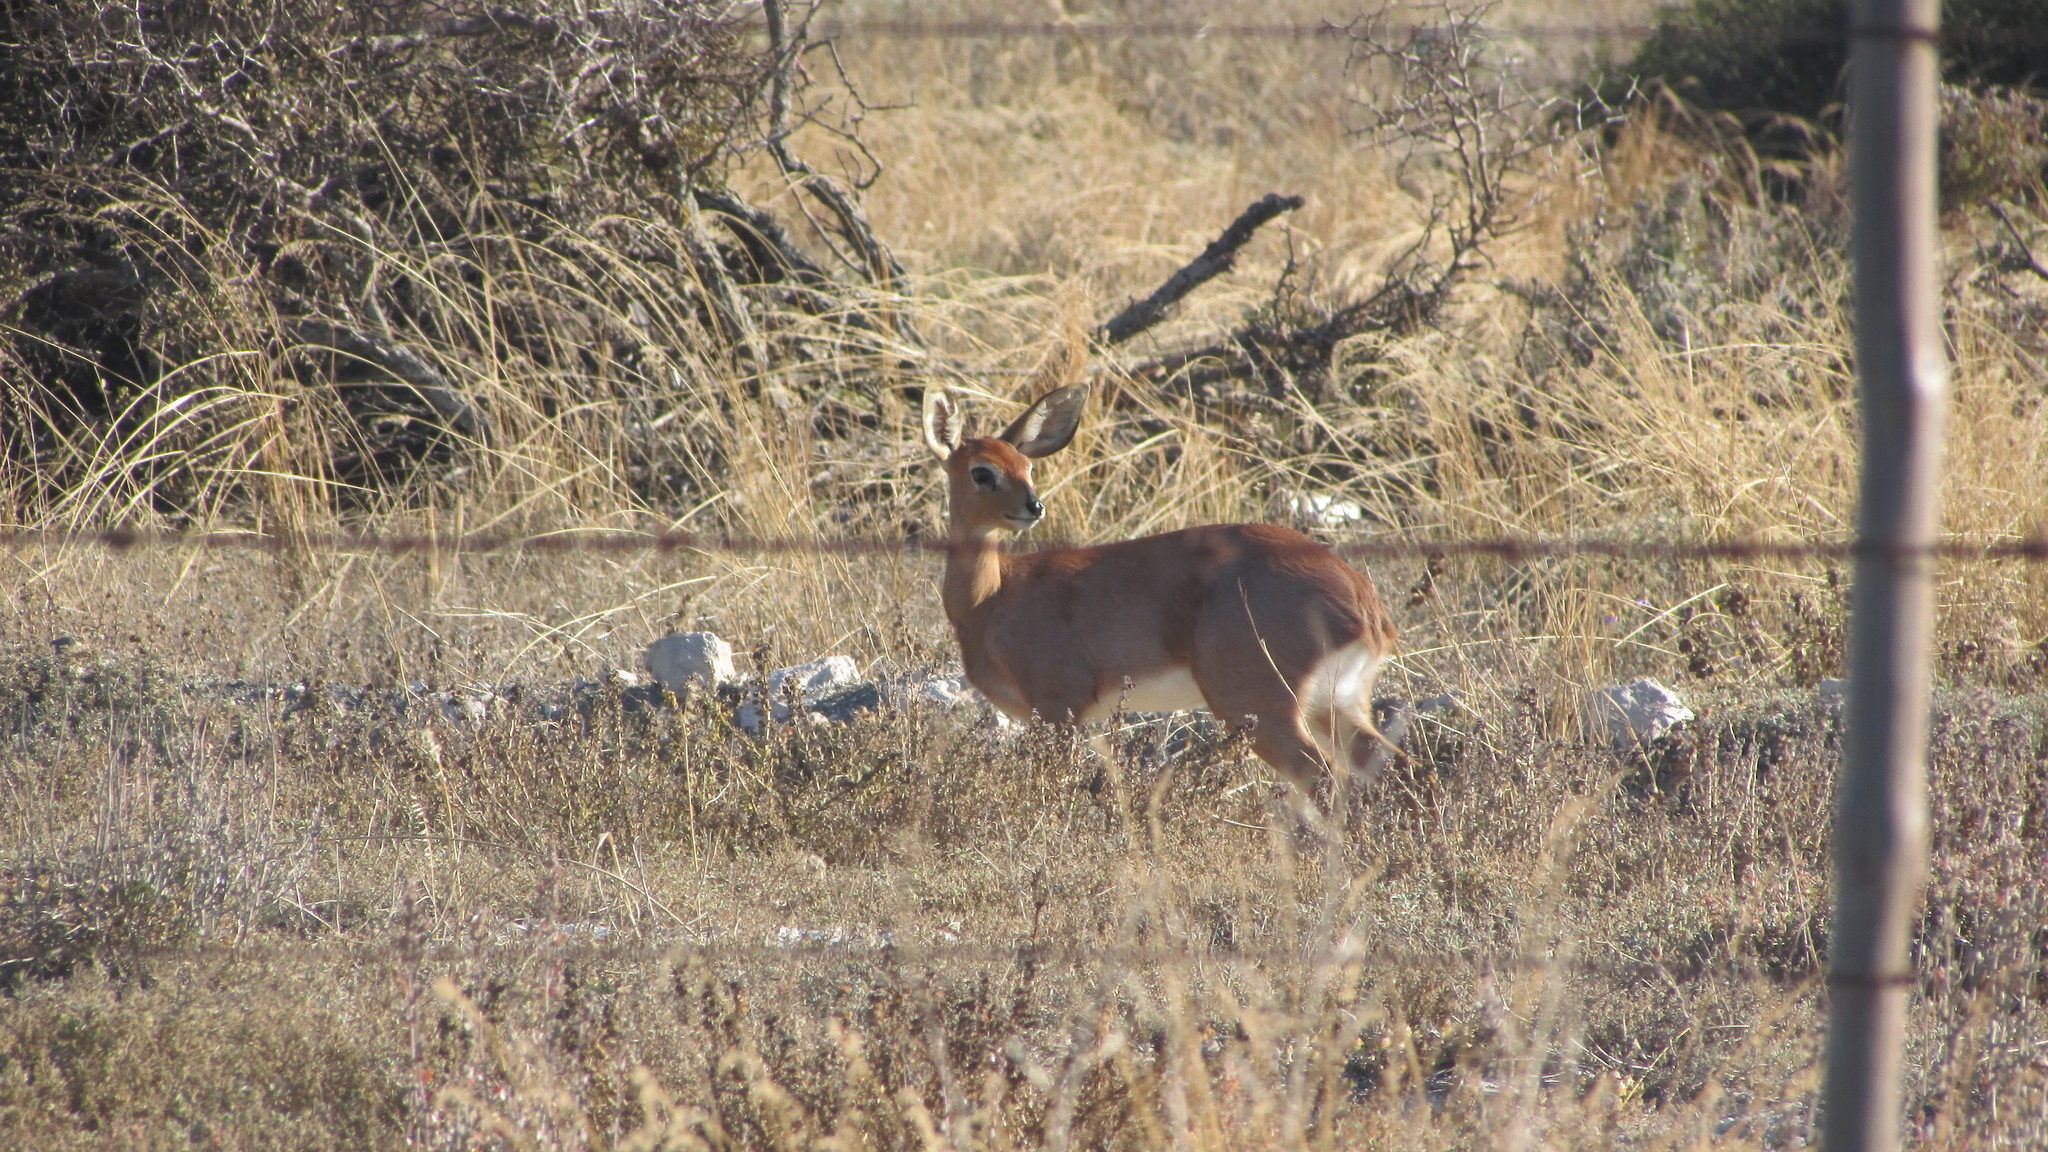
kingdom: Animalia
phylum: Chordata
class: Mammalia
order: Artiodactyla
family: Bovidae
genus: Raphicerus
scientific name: Raphicerus campestris
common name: Steenbok
